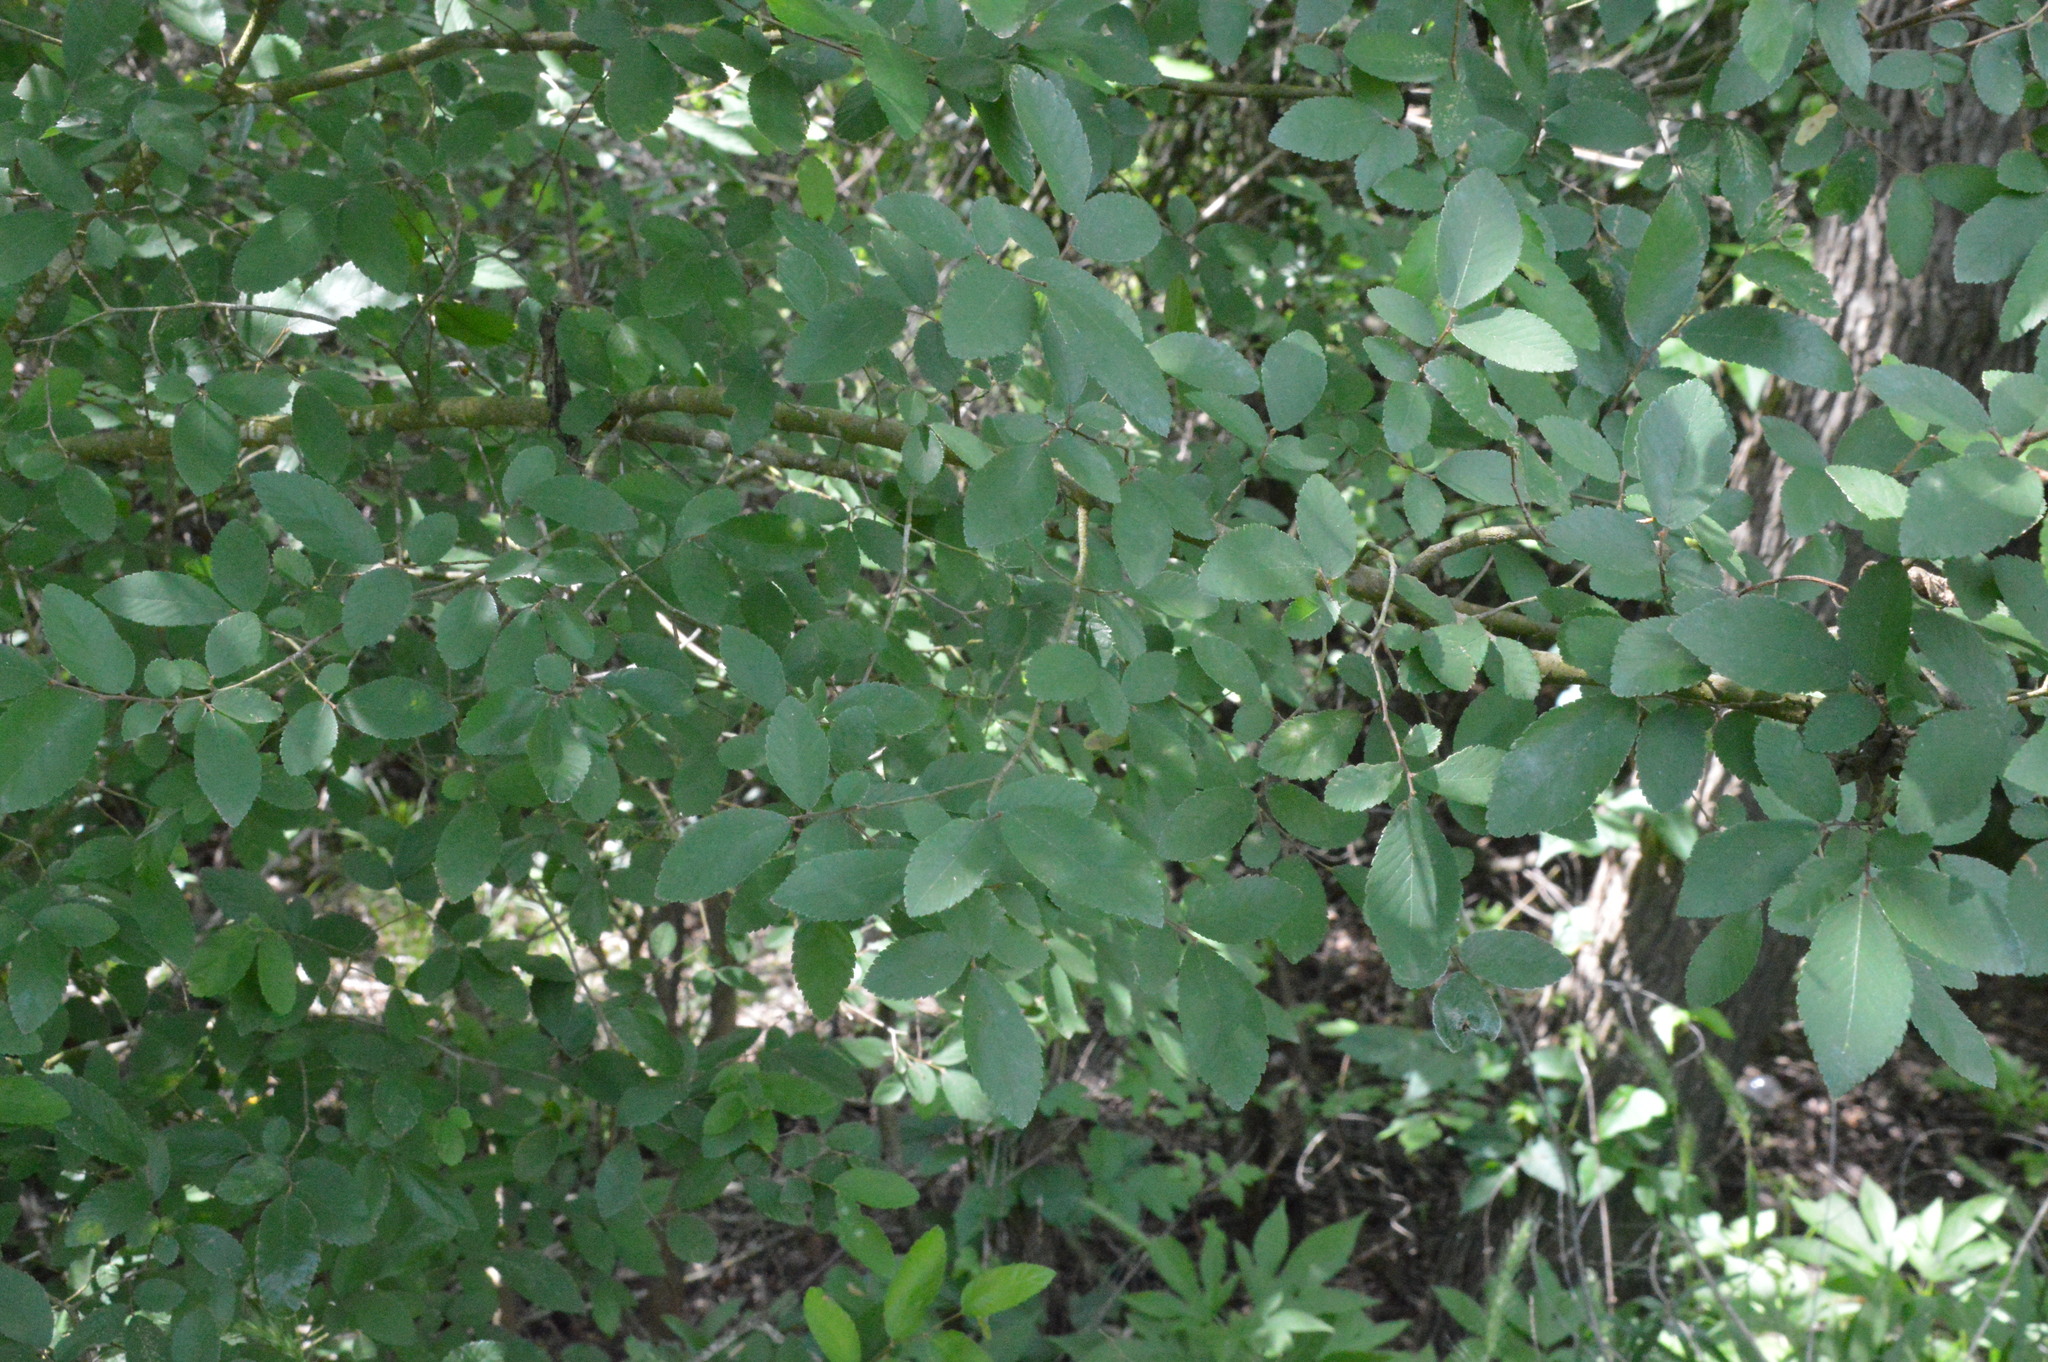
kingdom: Plantae
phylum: Tracheophyta
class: Magnoliopsida
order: Rosales
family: Ulmaceae
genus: Ulmus
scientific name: Ulmus crassifolia
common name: Basket elm
